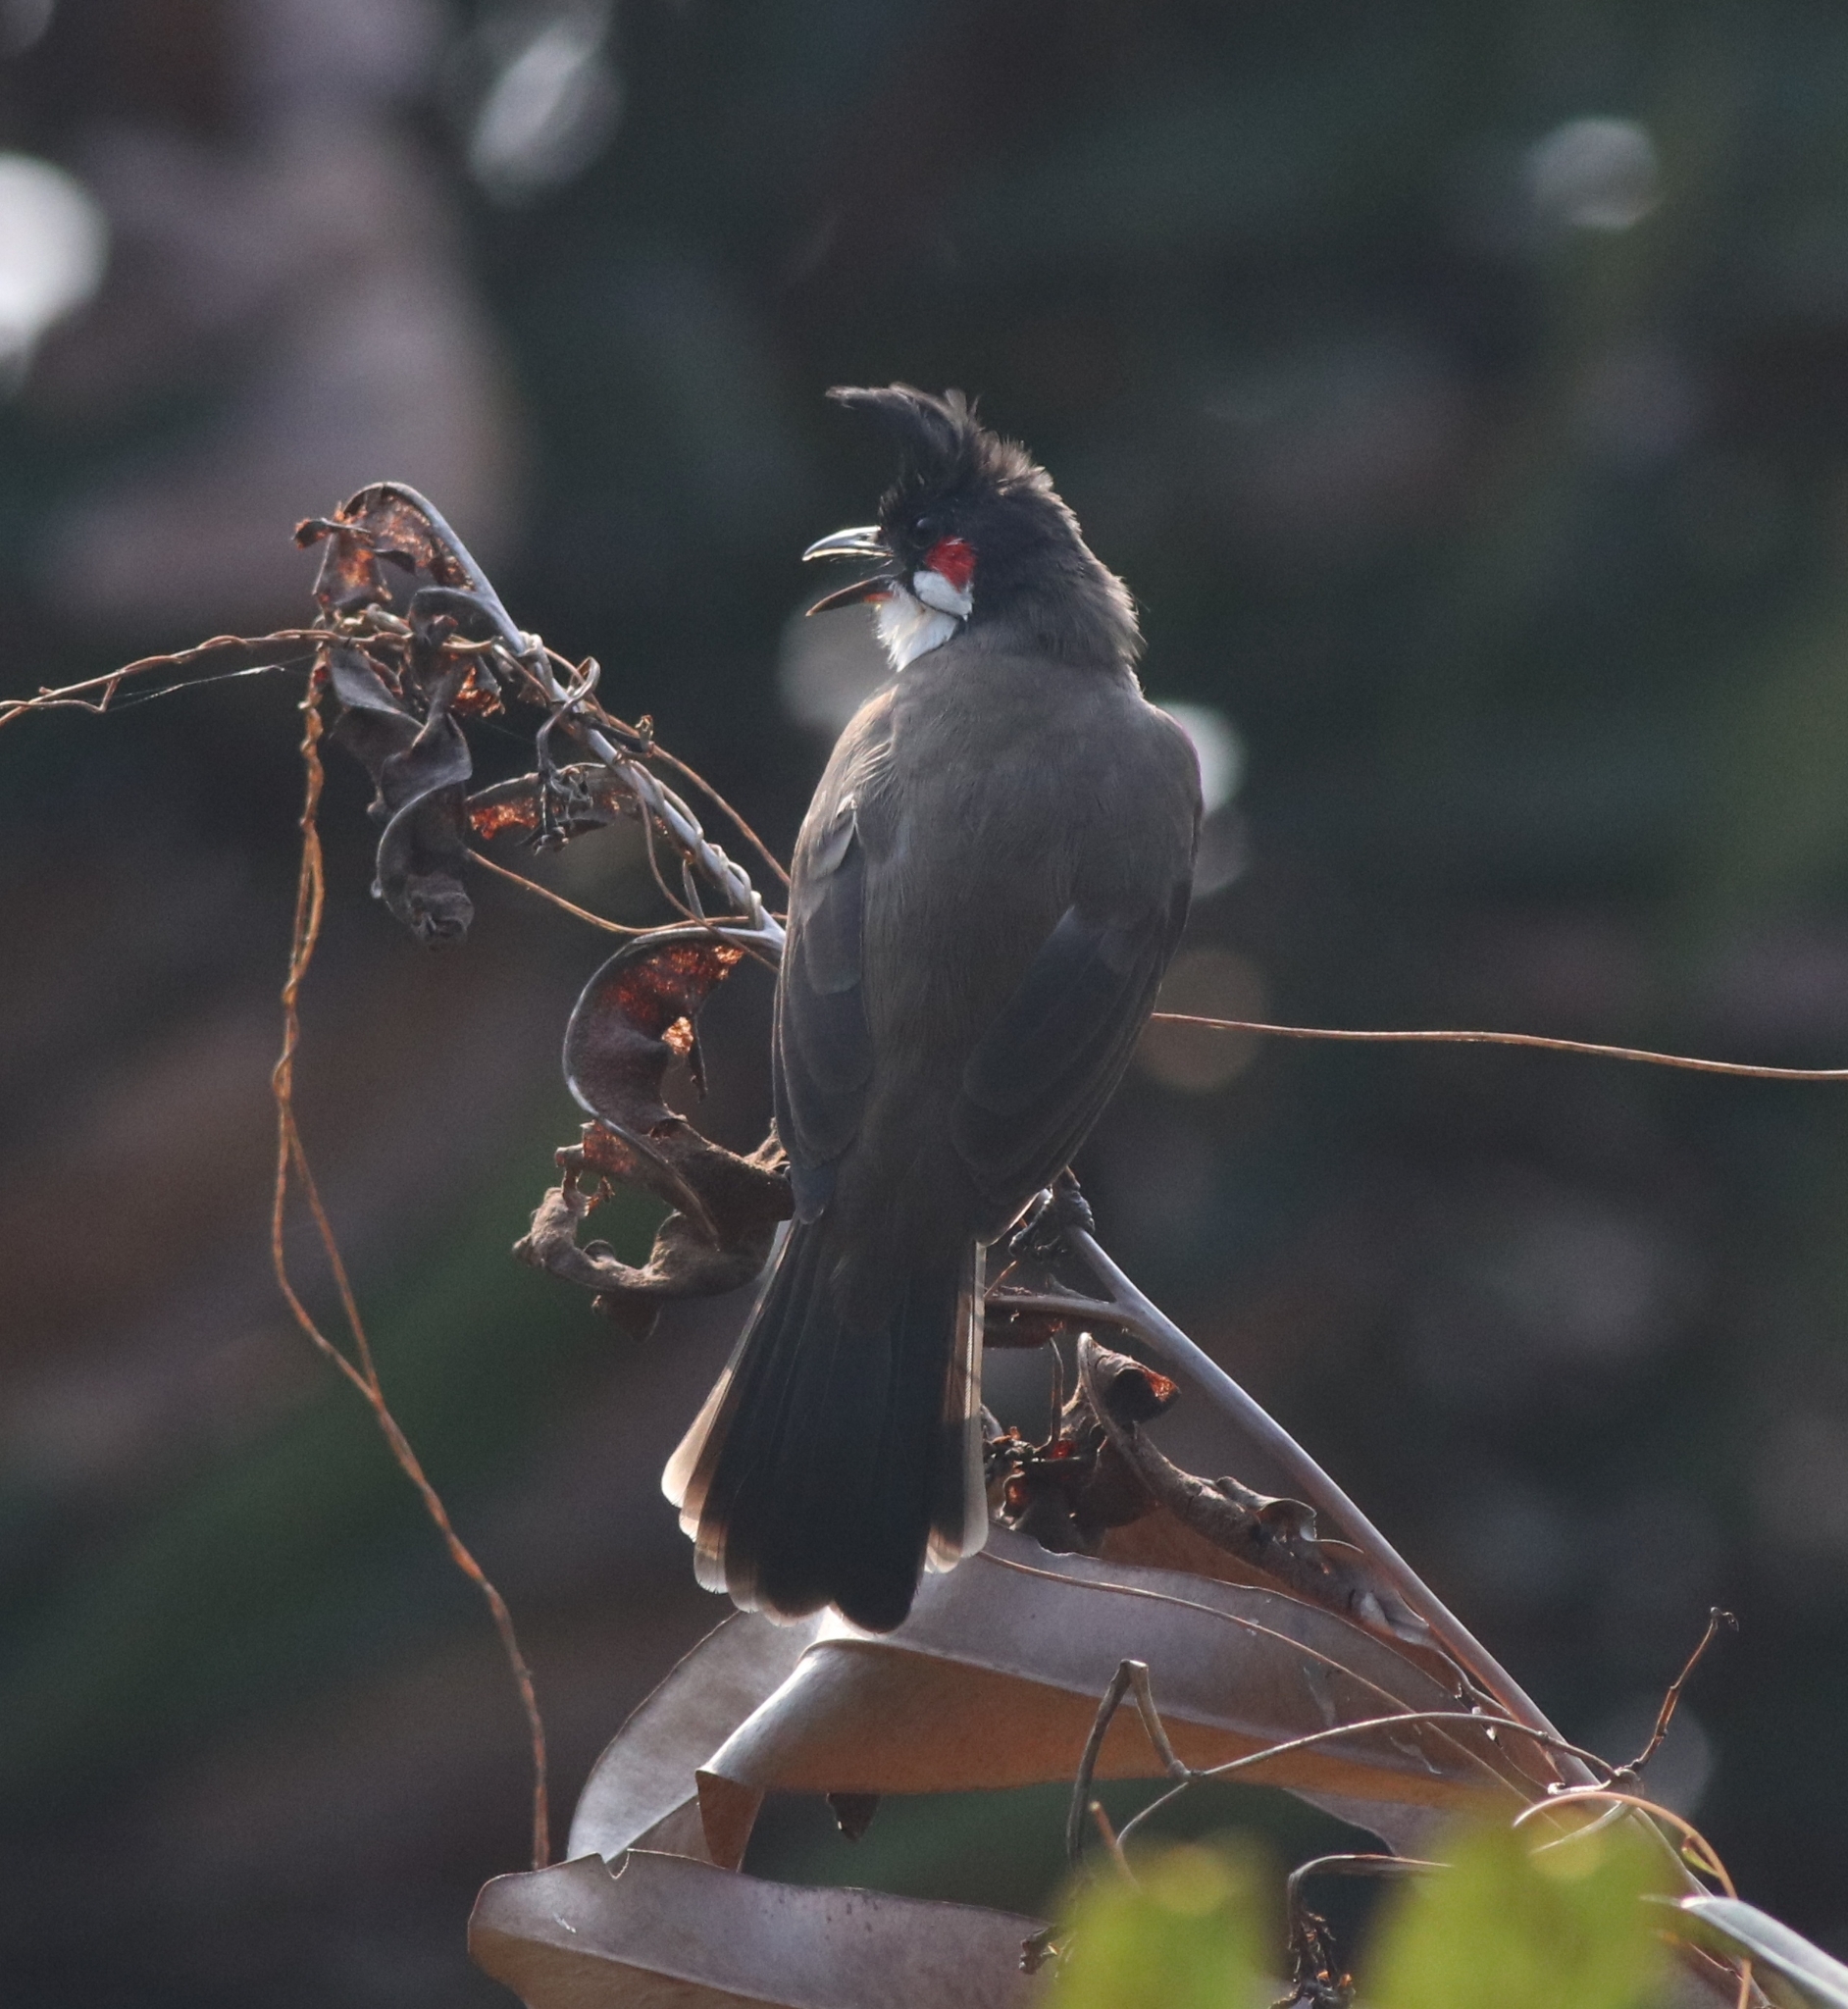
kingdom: Animalia
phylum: Chordata
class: Aves
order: Passeriformes
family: Pycnonotidae
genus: Pycnonotus
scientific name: Pycnonotus jocosus
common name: Red-whiskered bulbul
